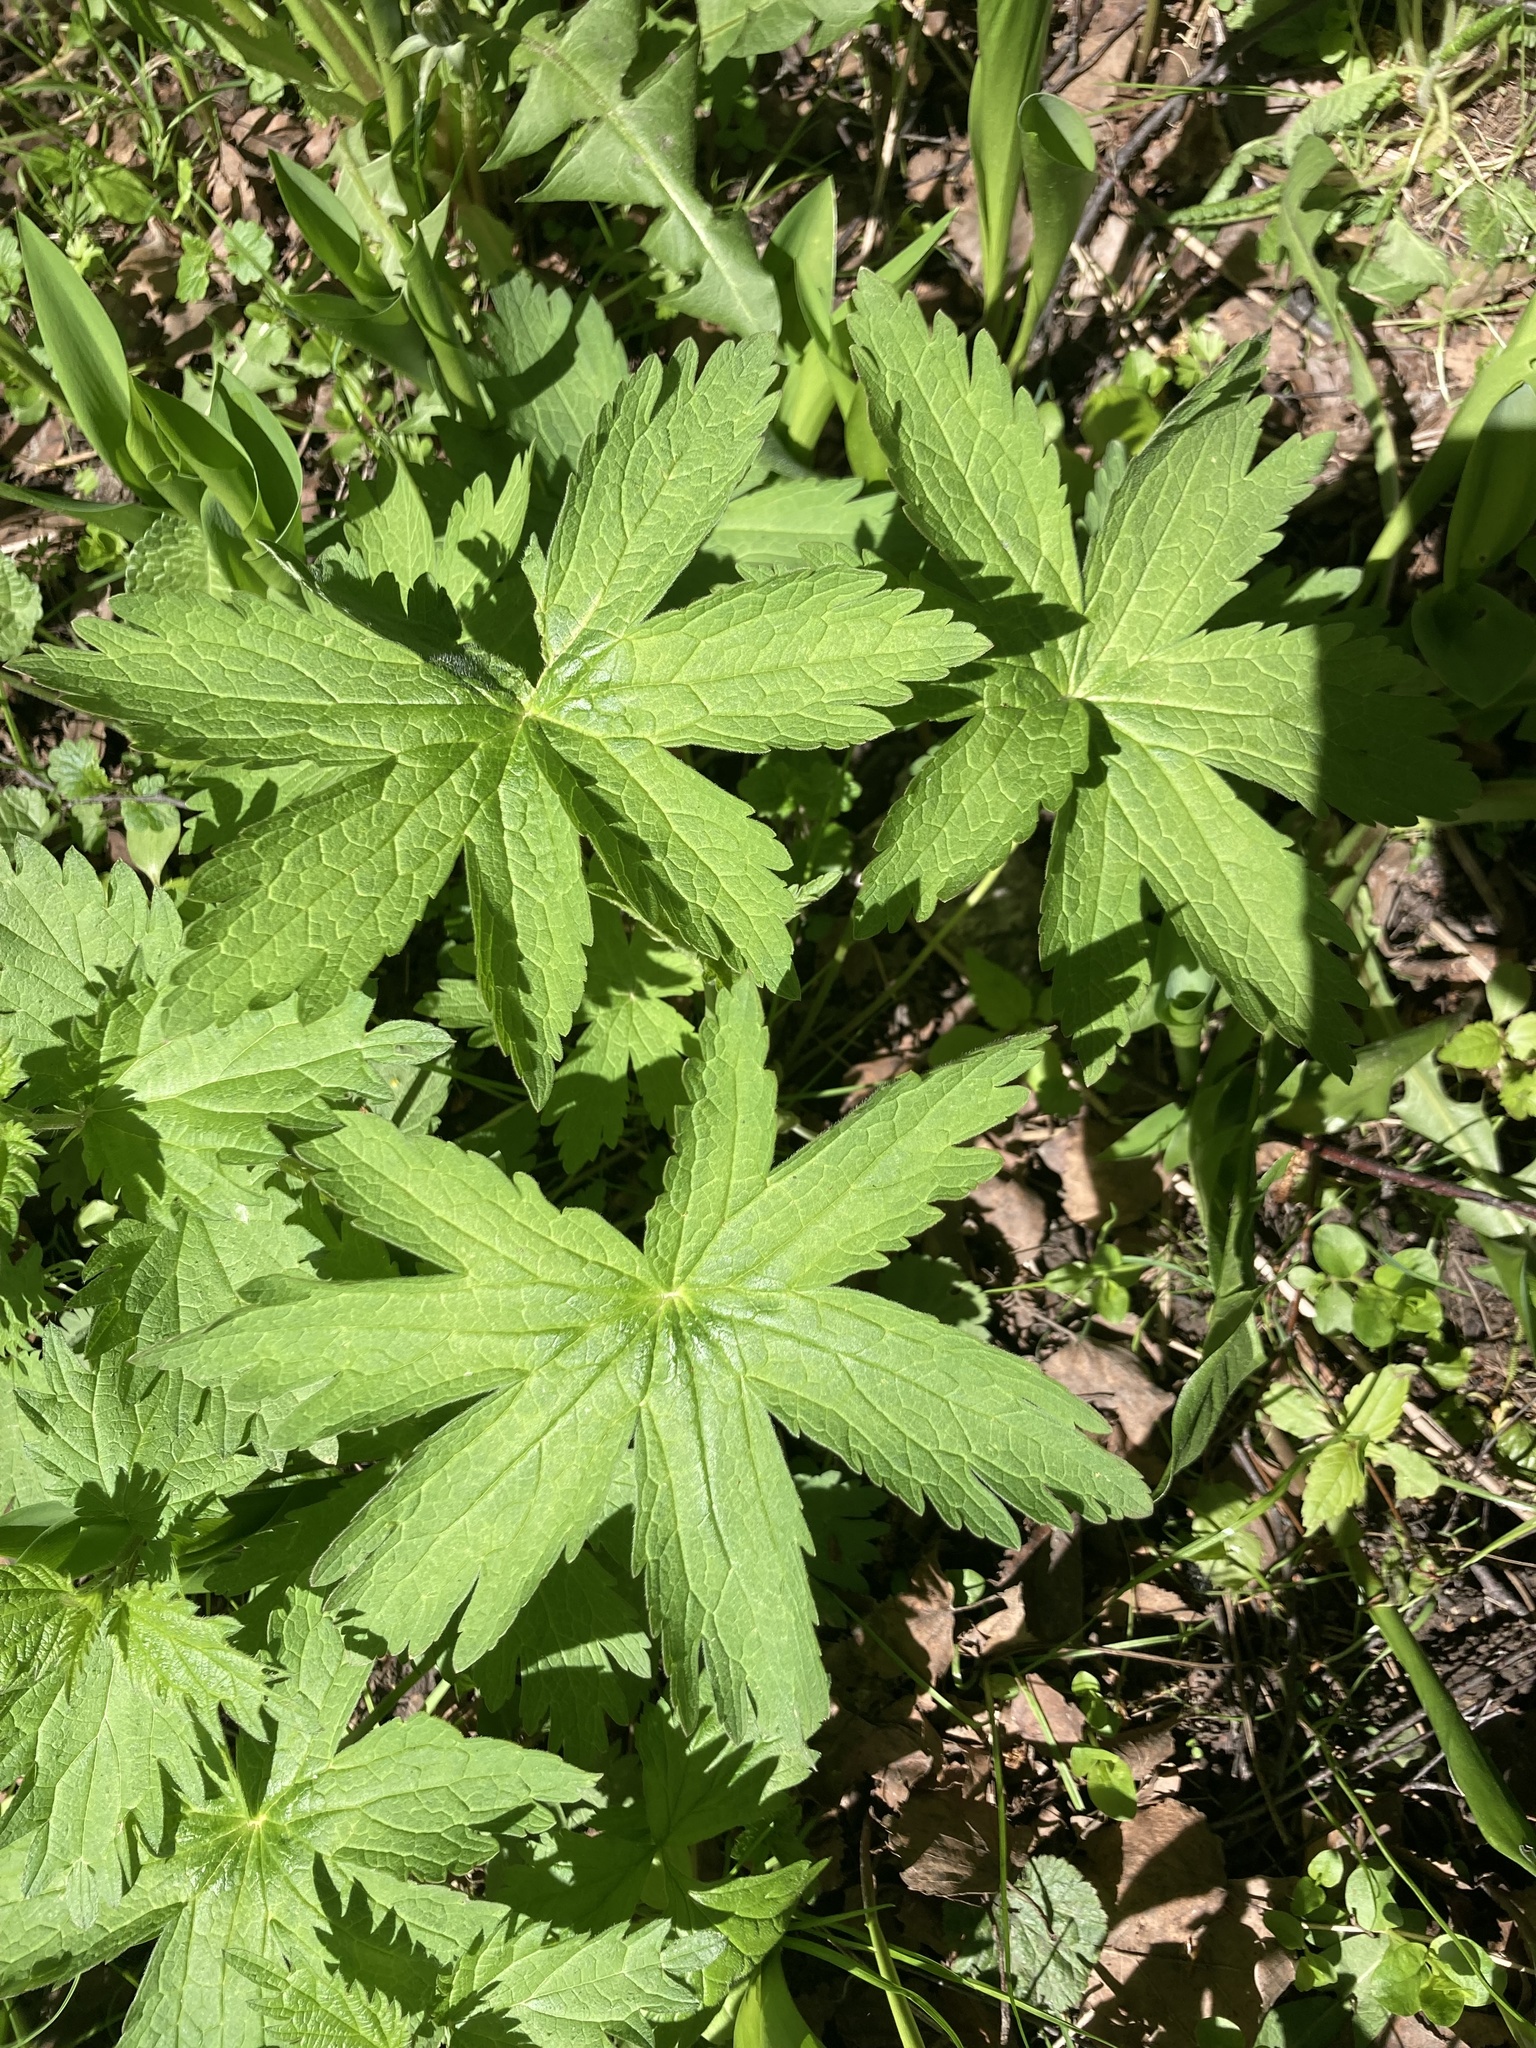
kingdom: Plantae
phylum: Tracheophyta
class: Magnoliopsida
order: Geraniales
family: Geraniaceae
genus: Geranium
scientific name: Geranium sylvaticum
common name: Wood crane's-bill
